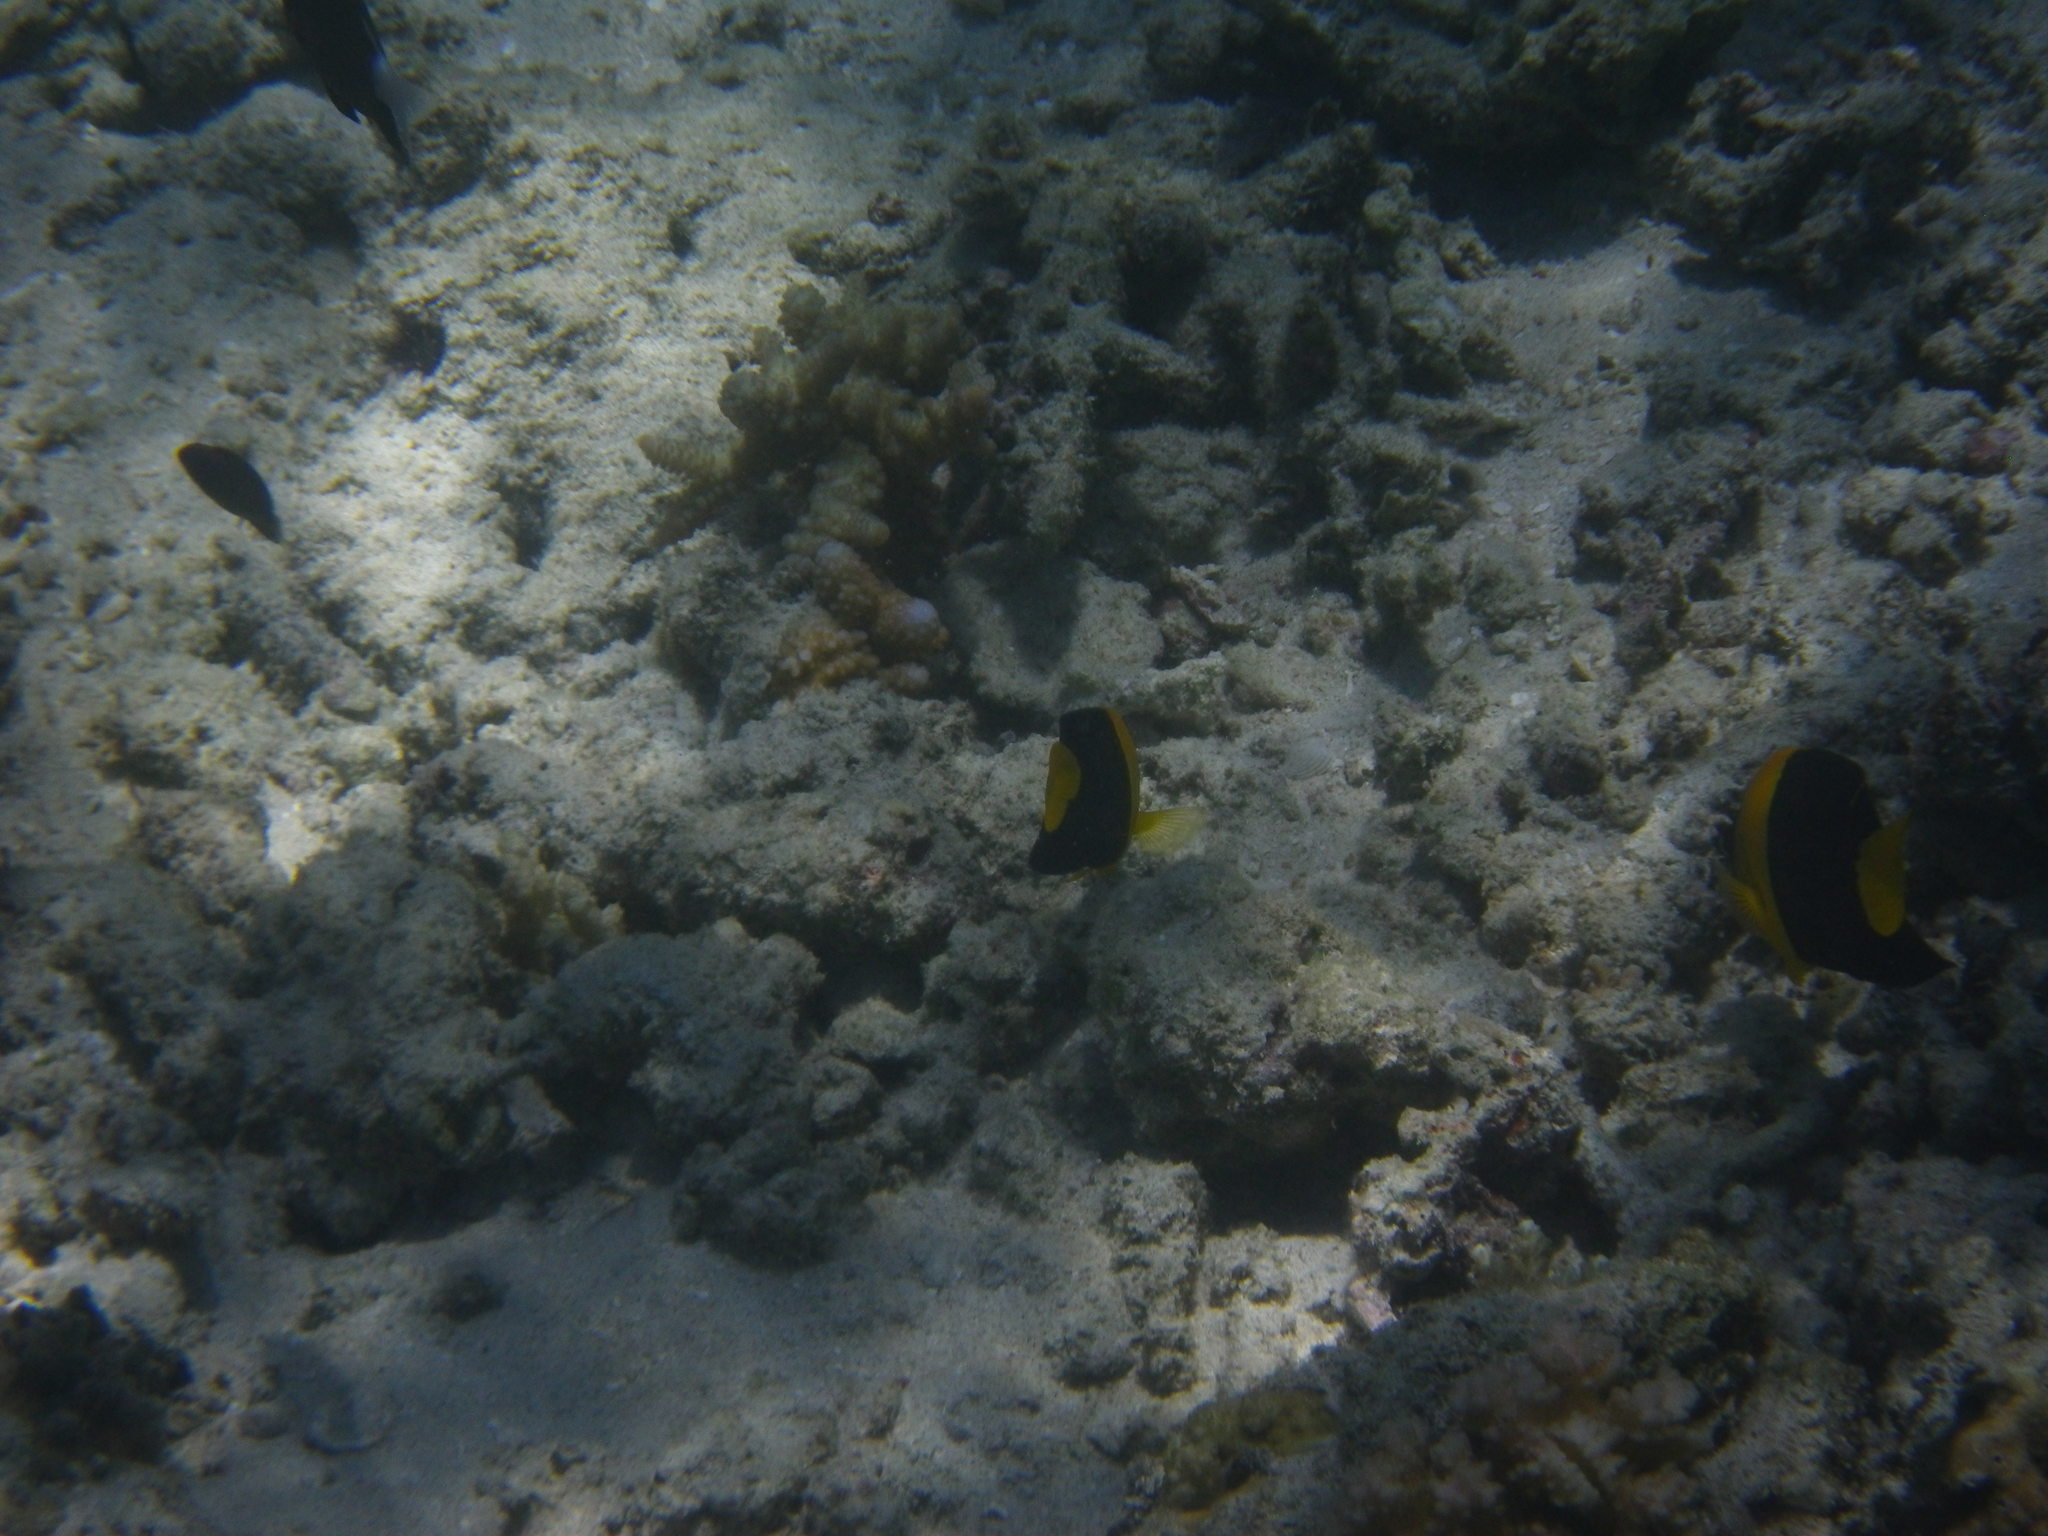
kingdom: Animalia
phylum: Chordata
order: Perciformes
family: Pomacanthidae
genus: Centropyge
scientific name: Centropyge bicolor
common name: Bicolor angelfish
